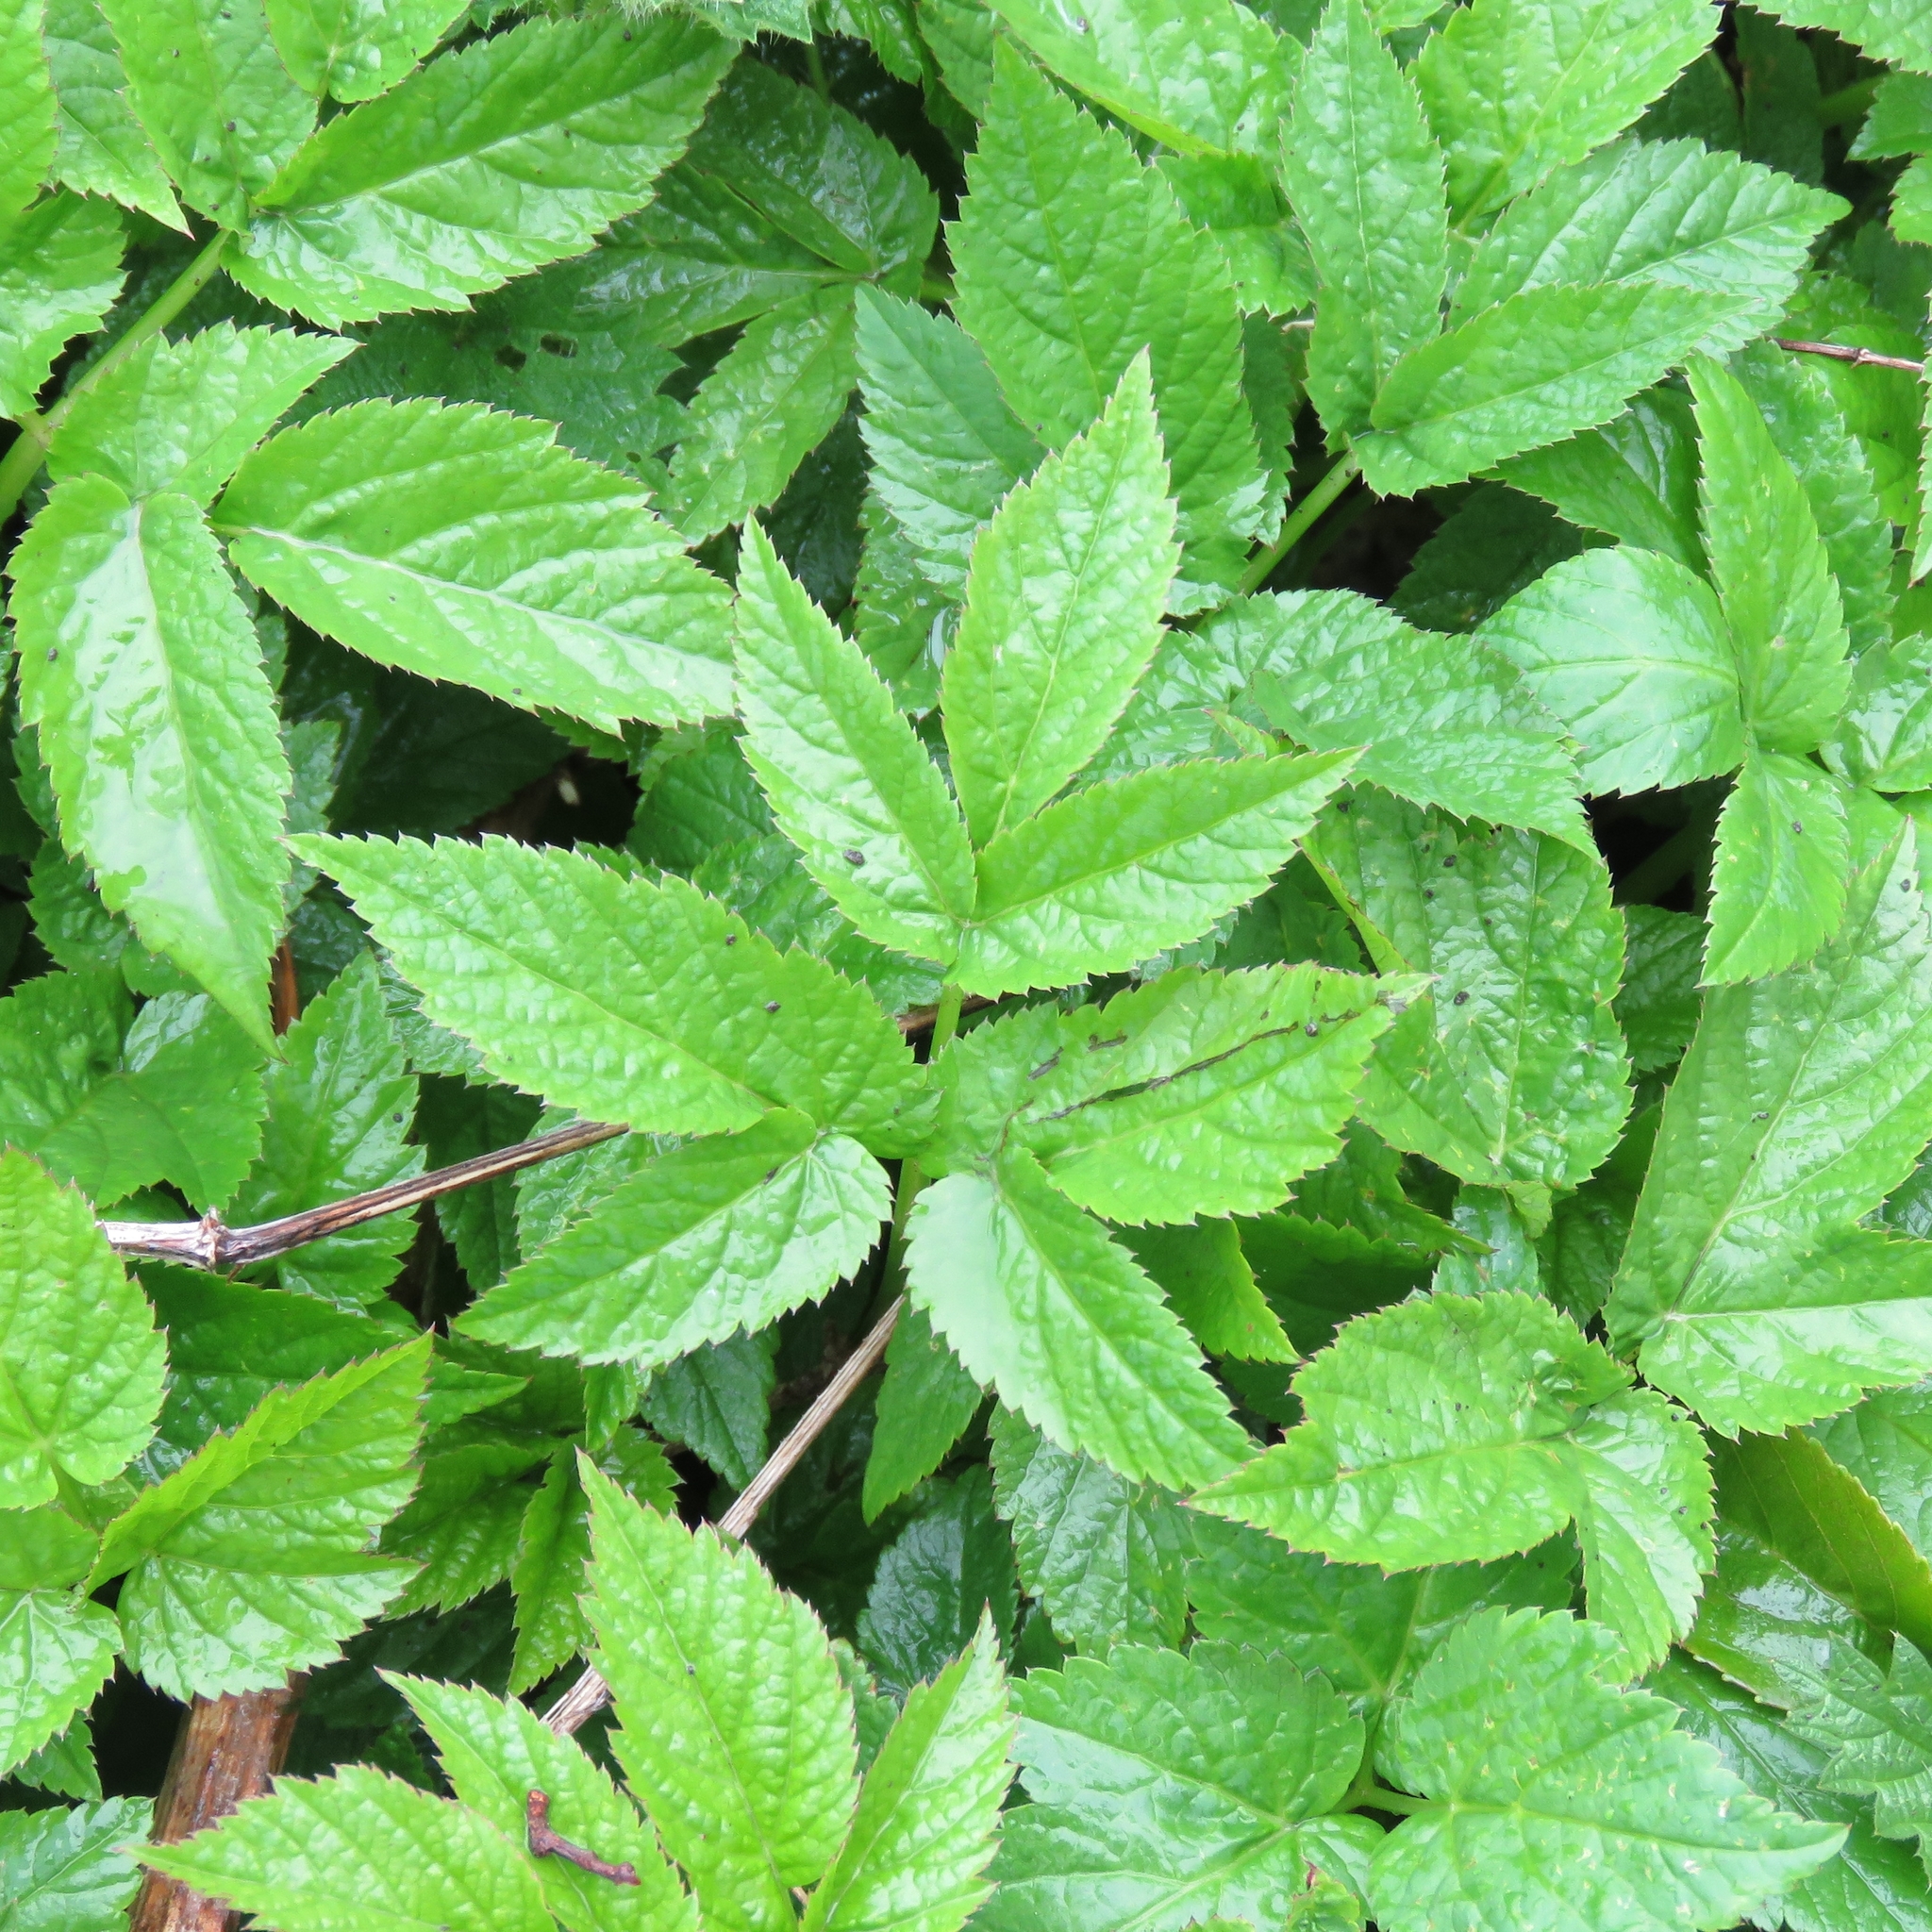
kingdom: Plantae
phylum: Tracheophyta
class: Magnoliopsida
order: Apiales
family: Apiaceae
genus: Aegopodium
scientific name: Aegopodium podagraria
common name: Ground-elder
